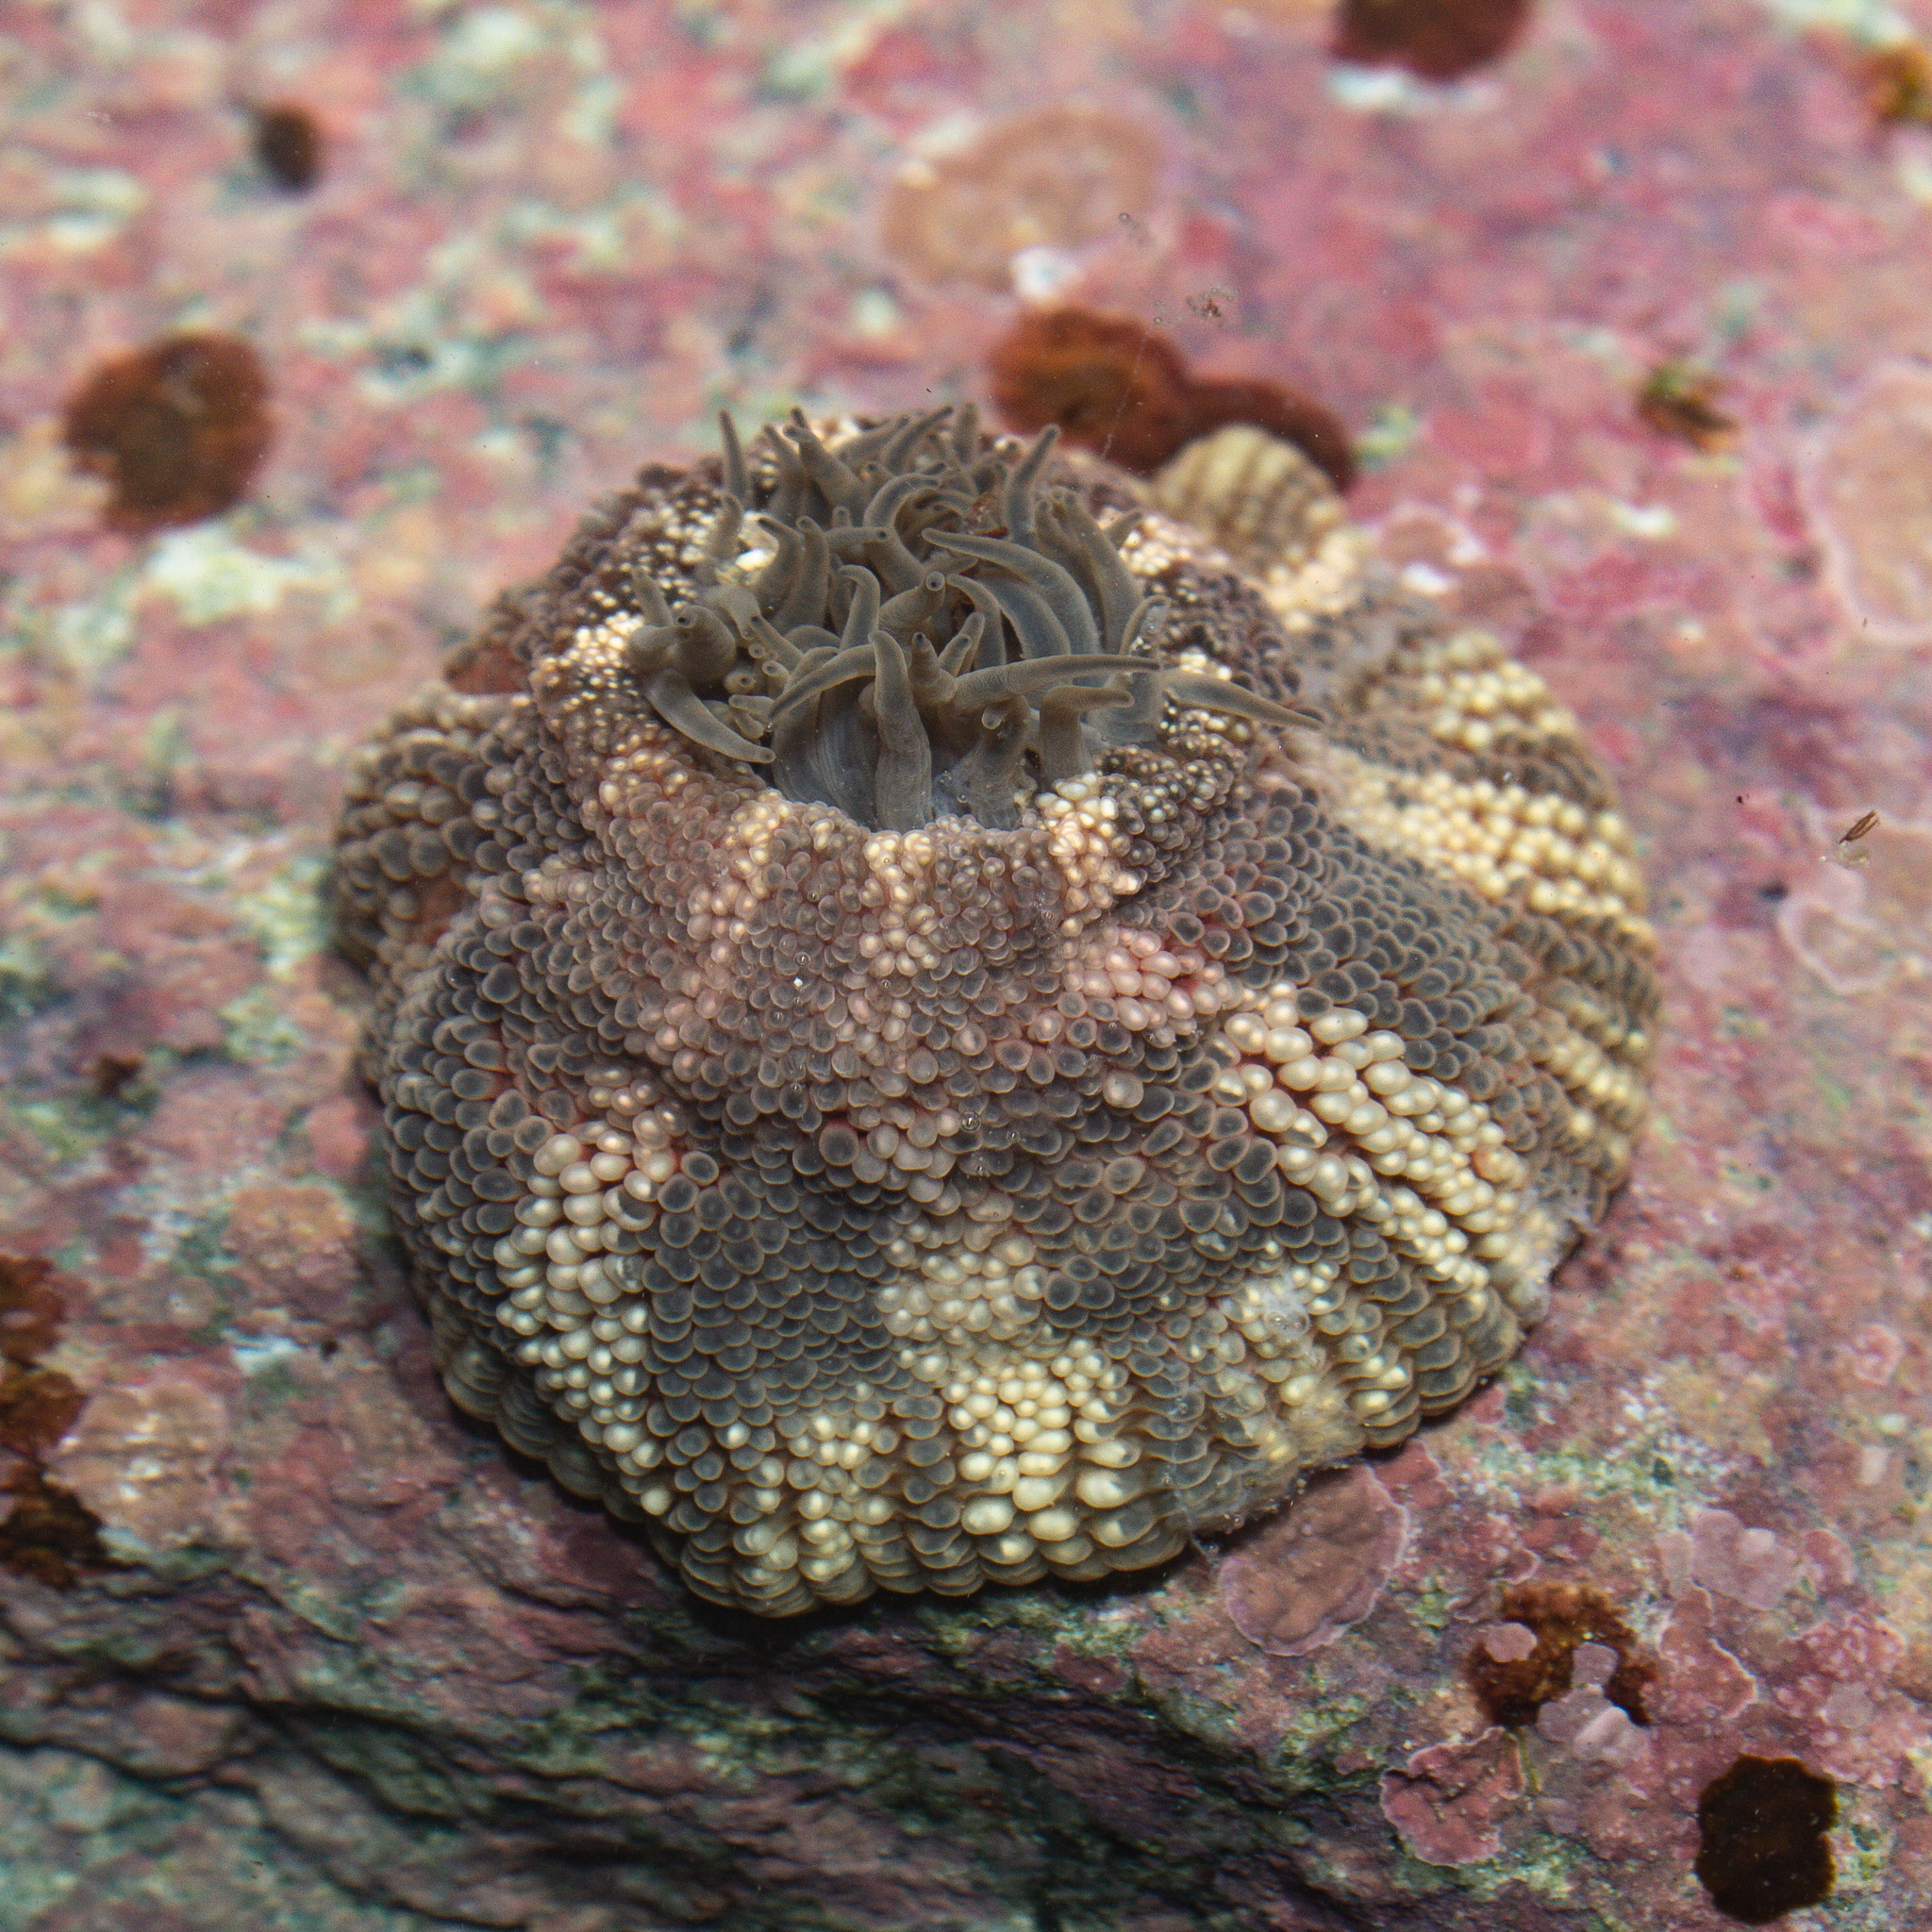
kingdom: Animalia
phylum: Cnidaria
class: Anthozoa
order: Actiniaria
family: Actiniidae
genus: Bunodosoma
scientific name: Bunodosoma granuliferum
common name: Red warty anemone
